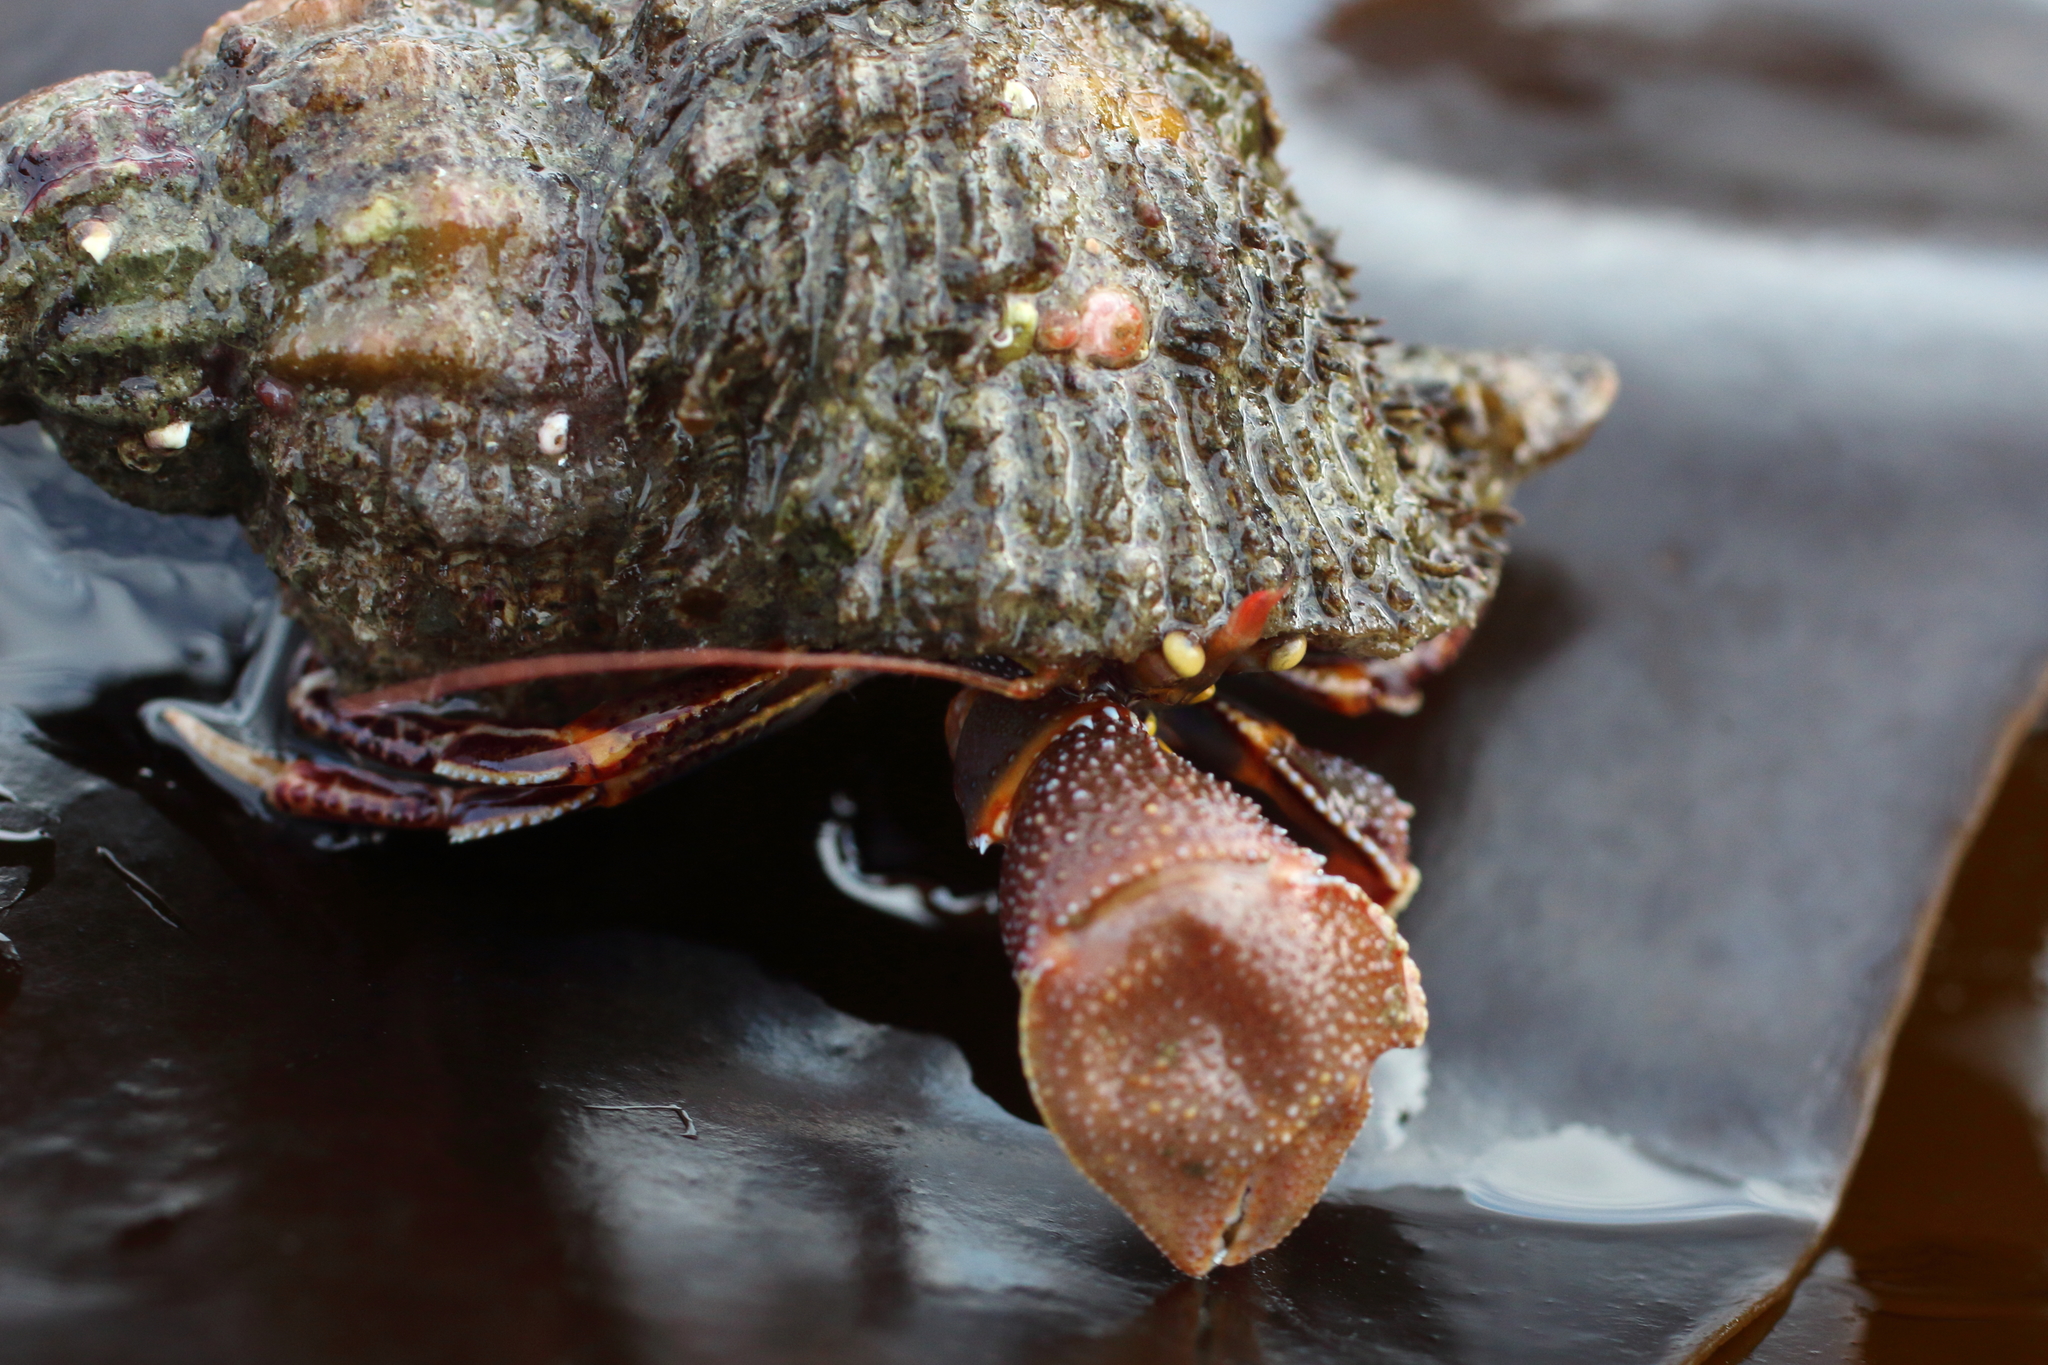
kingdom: Animalia
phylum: Arthropoda
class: Malacostraca
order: Decapoda
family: Paguridae
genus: Elassochirus
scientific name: Elassochirus tenuimanus
